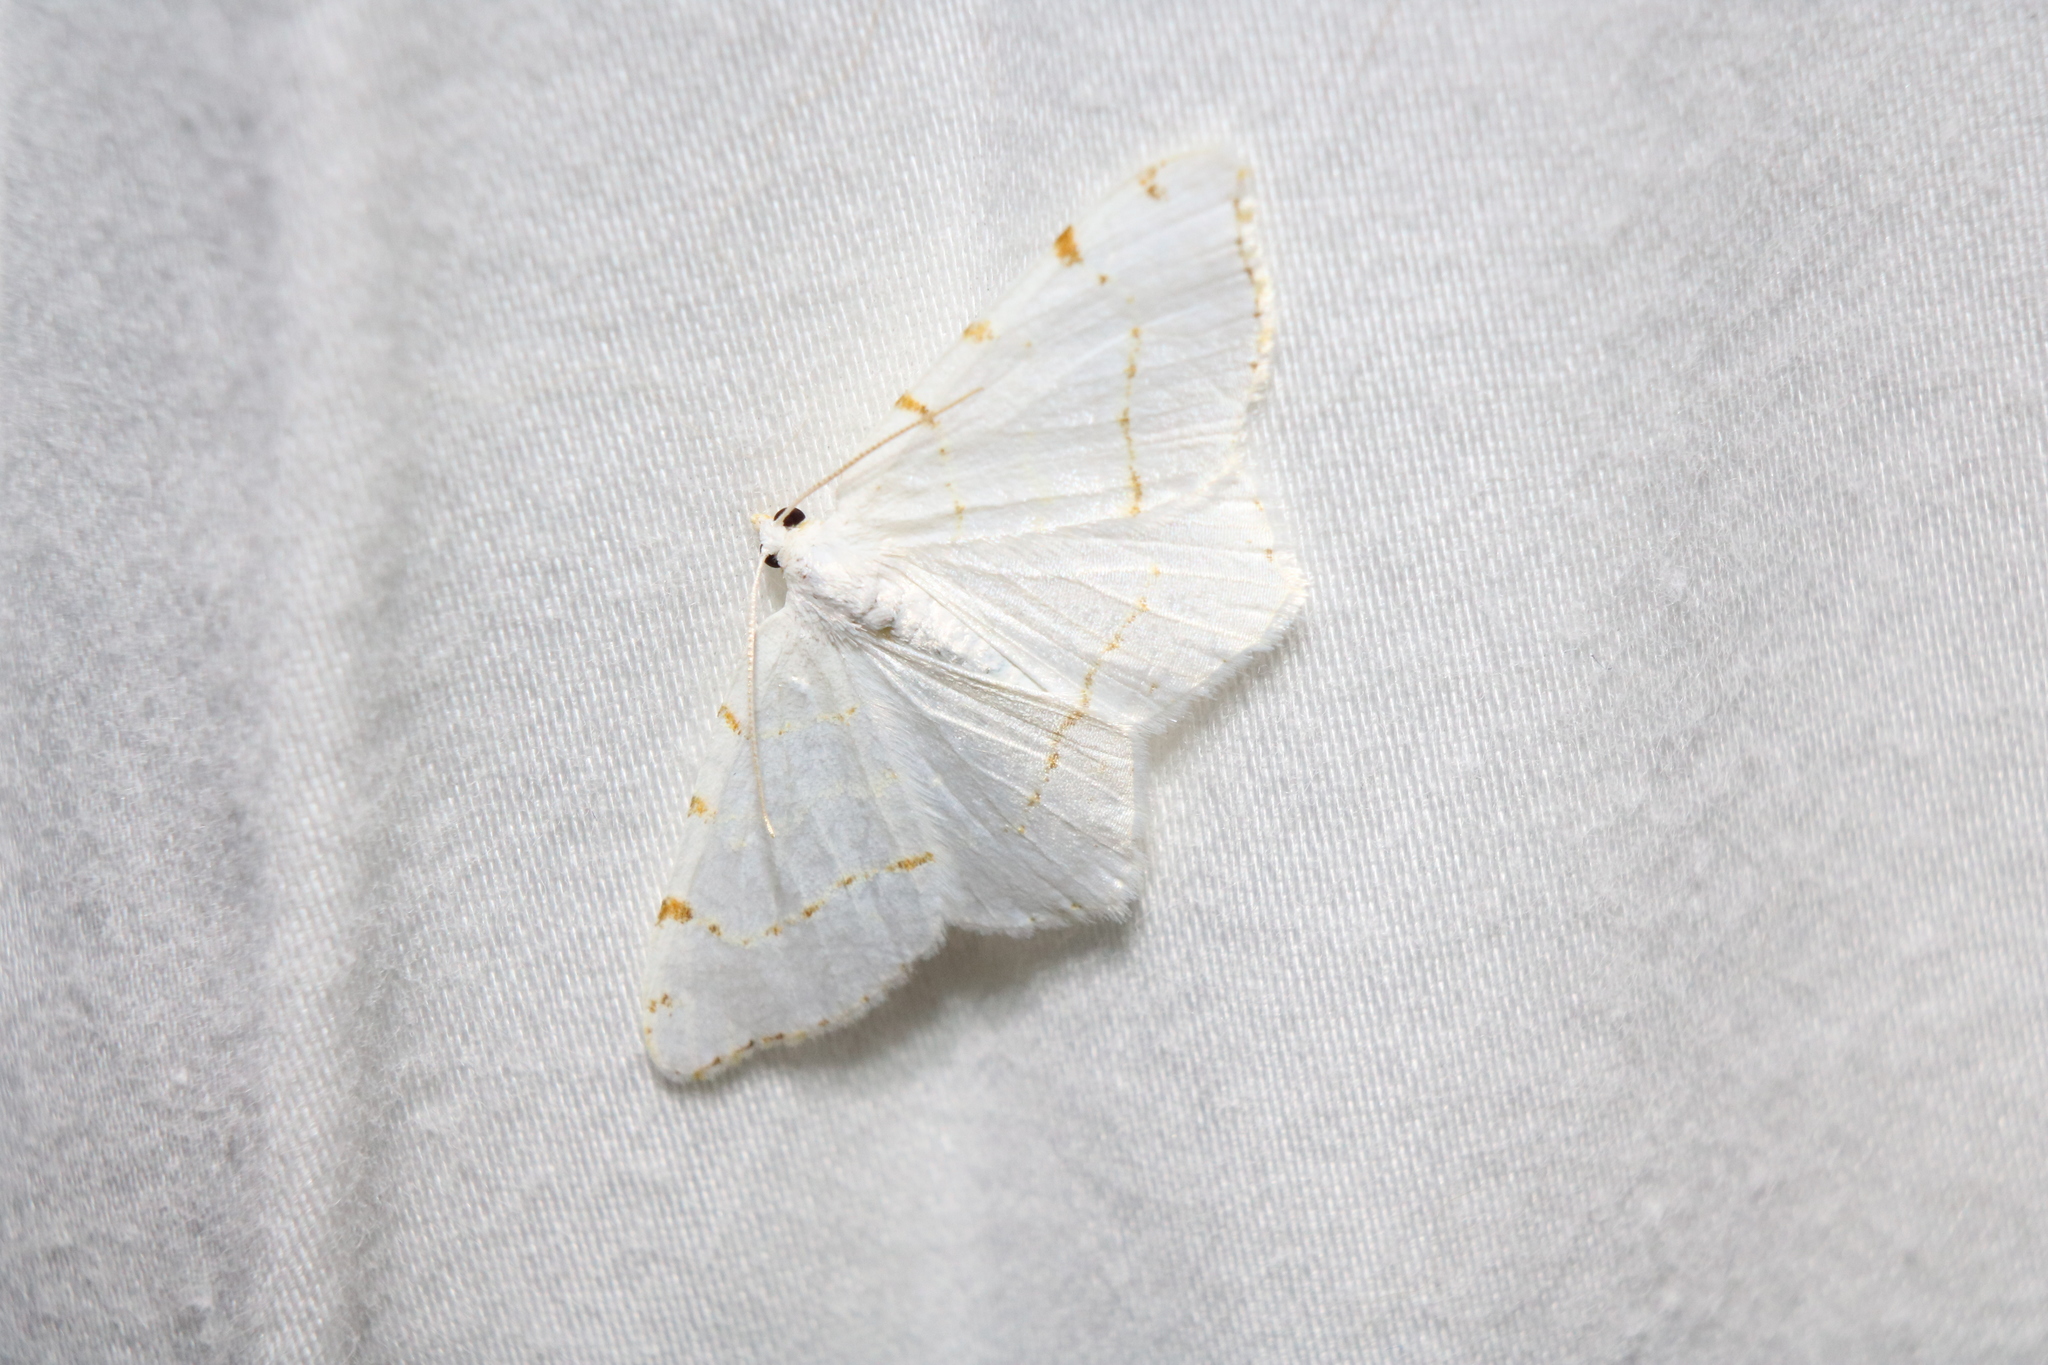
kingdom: Animalia
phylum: Arthropoda
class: Insecta
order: Lepidoptera
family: Geometridae
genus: Macaria
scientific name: Macaria pustularia
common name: Lesser maple spanworm moth
